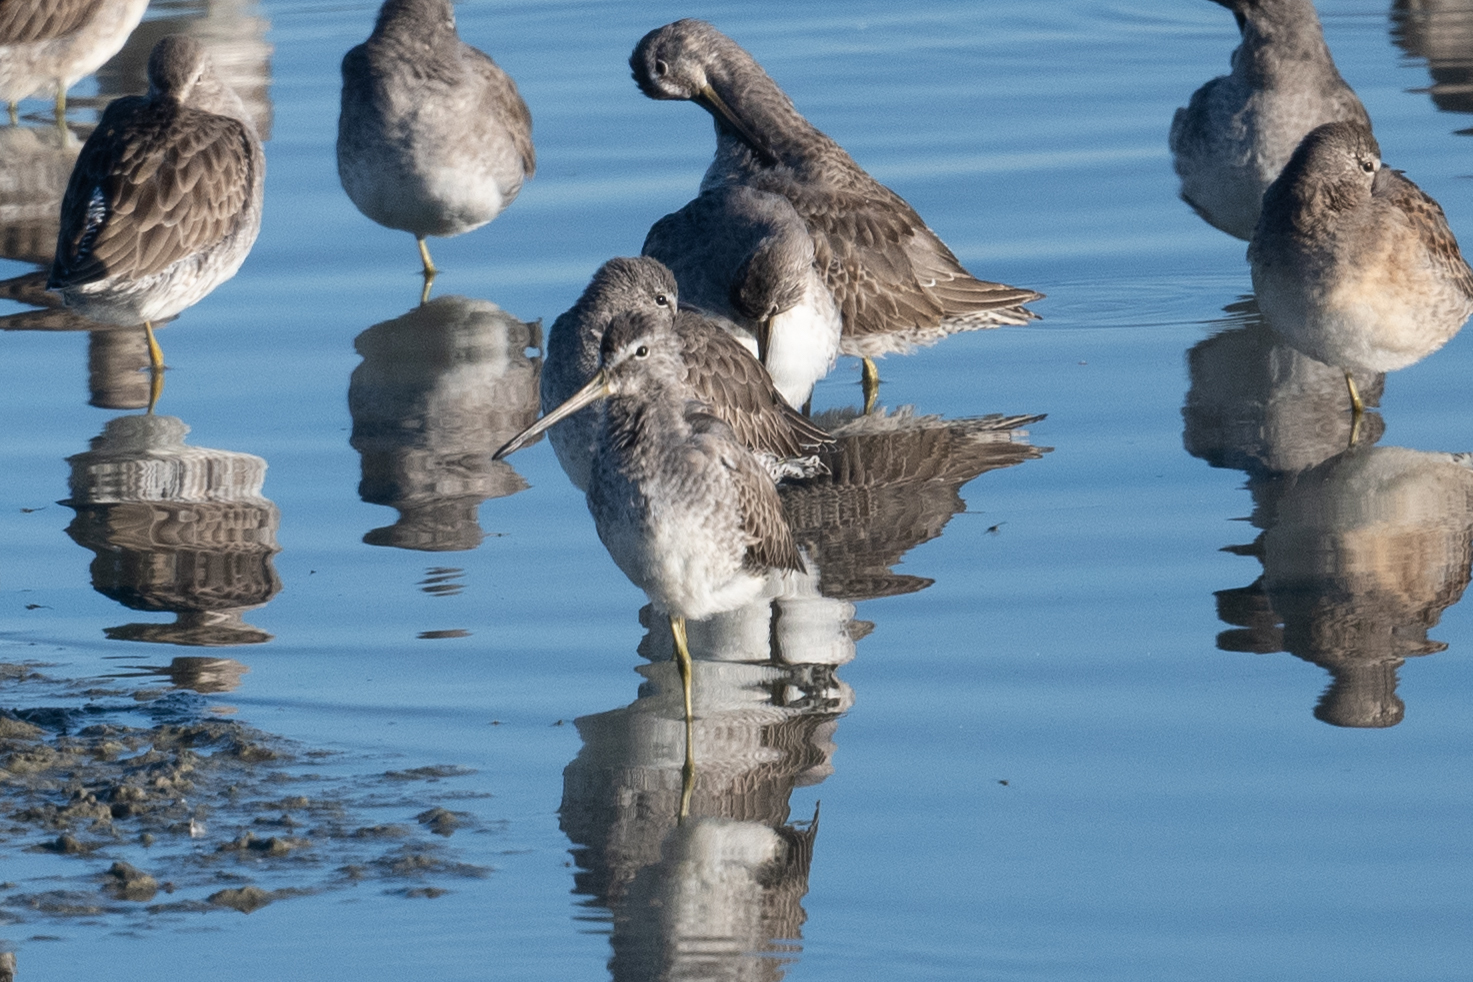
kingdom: Animalia
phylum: Chordata
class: Aves
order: Charadriiformes
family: Scolopacidae
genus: Limnodromus
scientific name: Limnodromus scolopaceus
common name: Long-billed dowitcher
